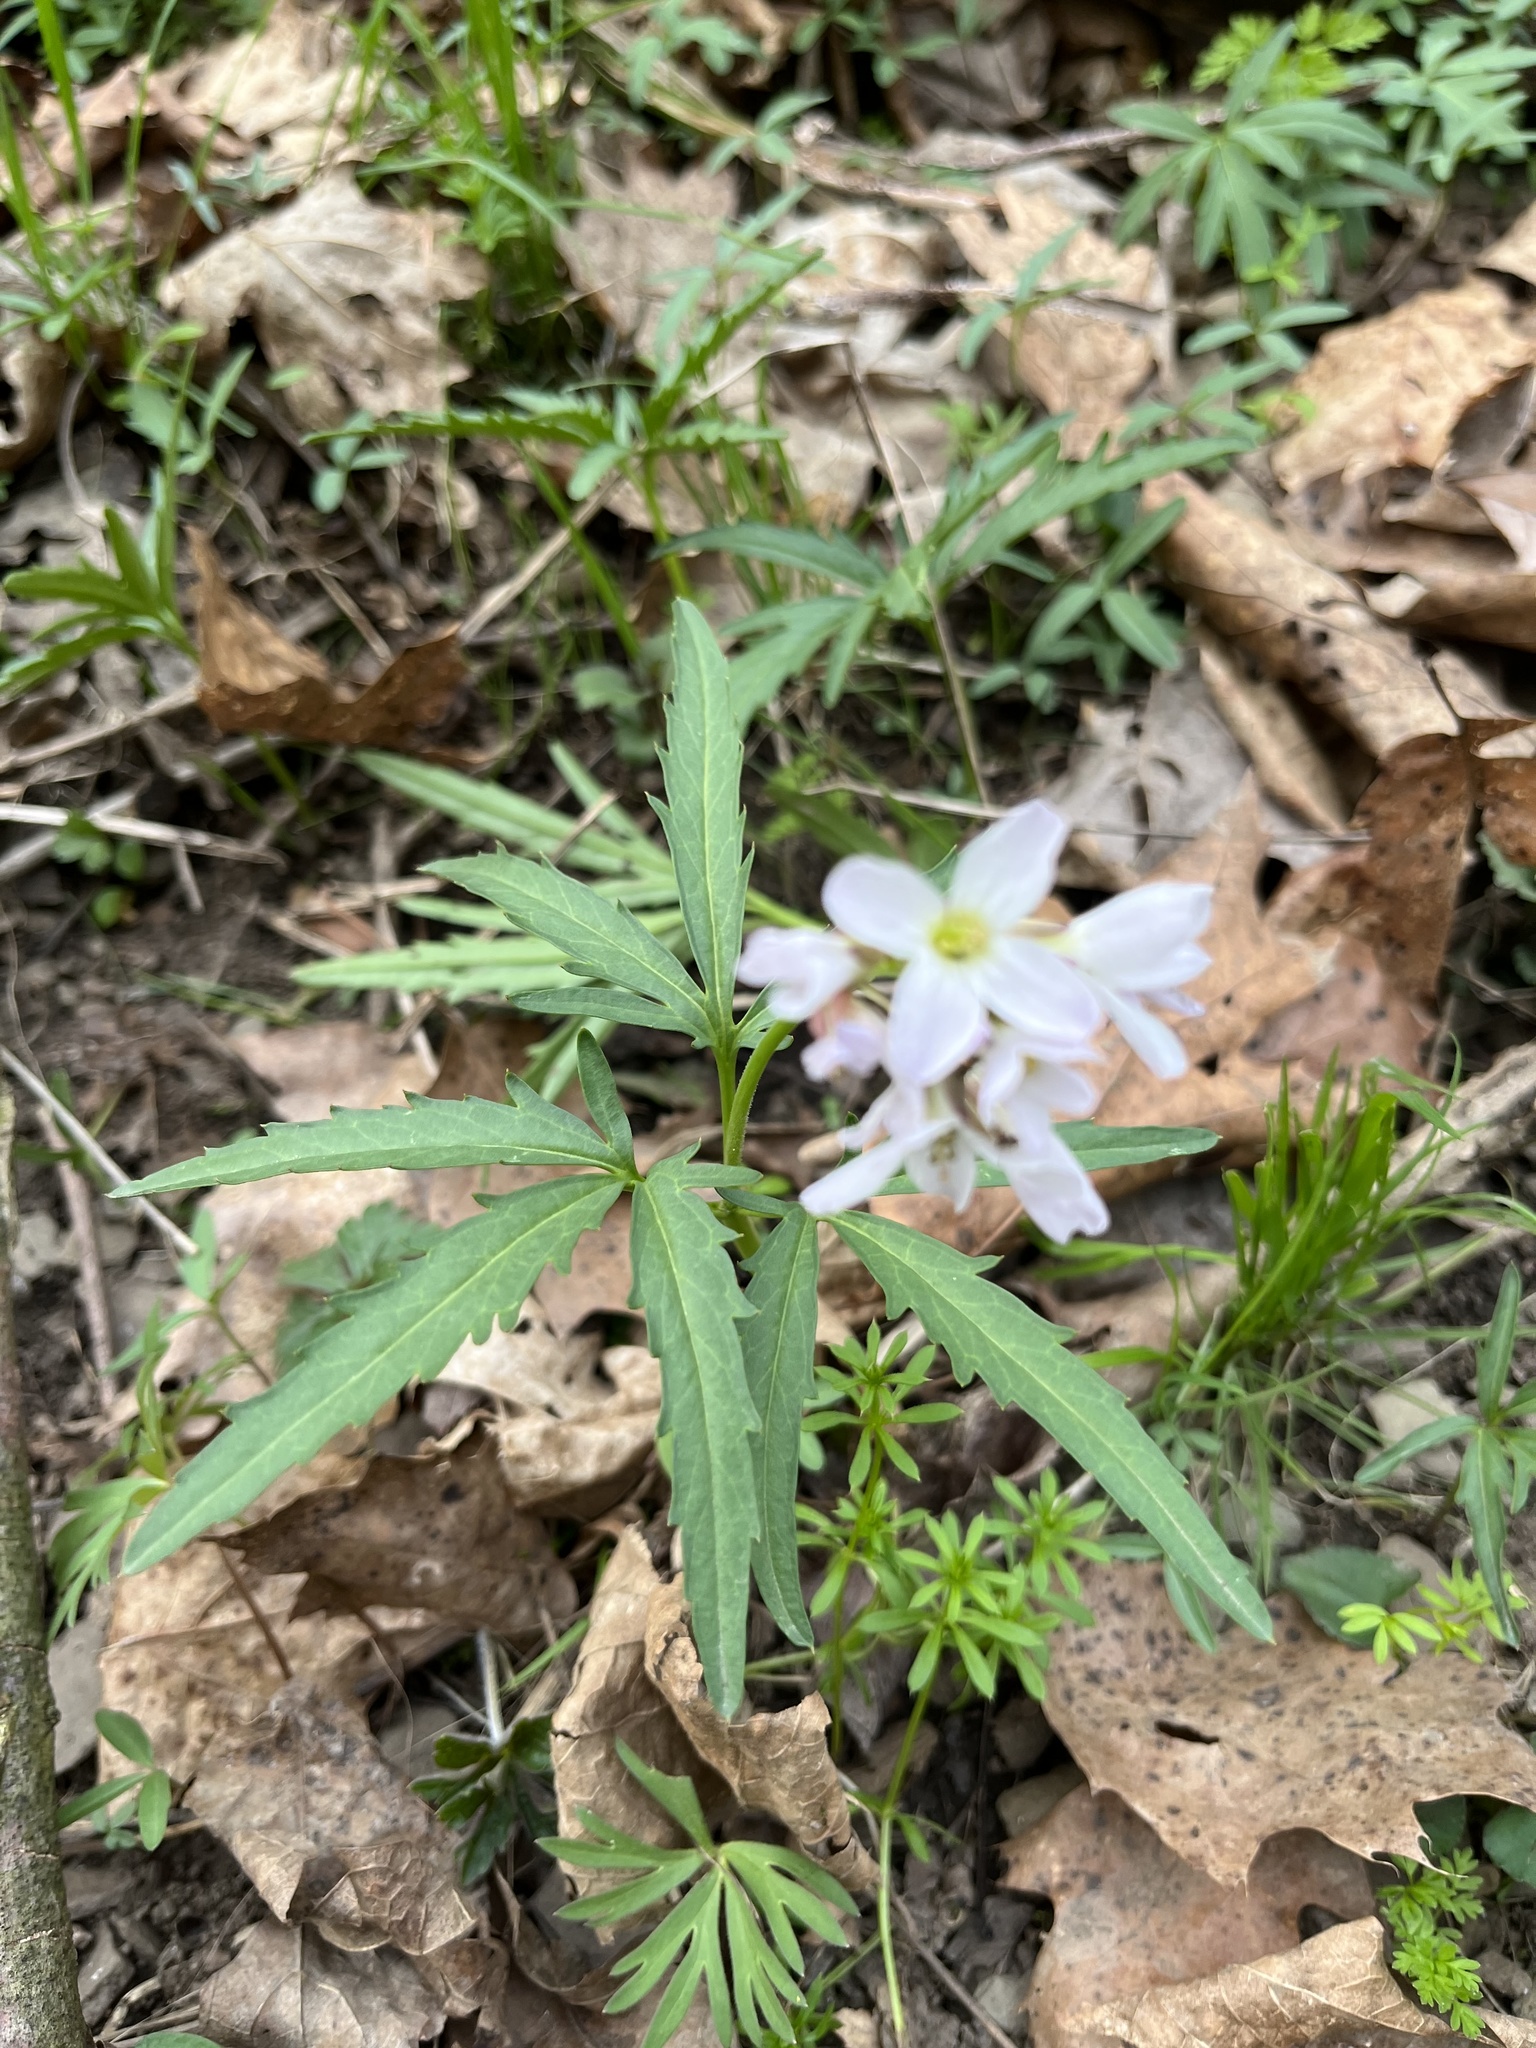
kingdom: Plantae
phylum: Tracheophyta
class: Magnoliopsida
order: Brassicales
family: Brassicaceae
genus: Cardamine
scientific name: Cardamine concatenata
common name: Cut-leaf toothcup
